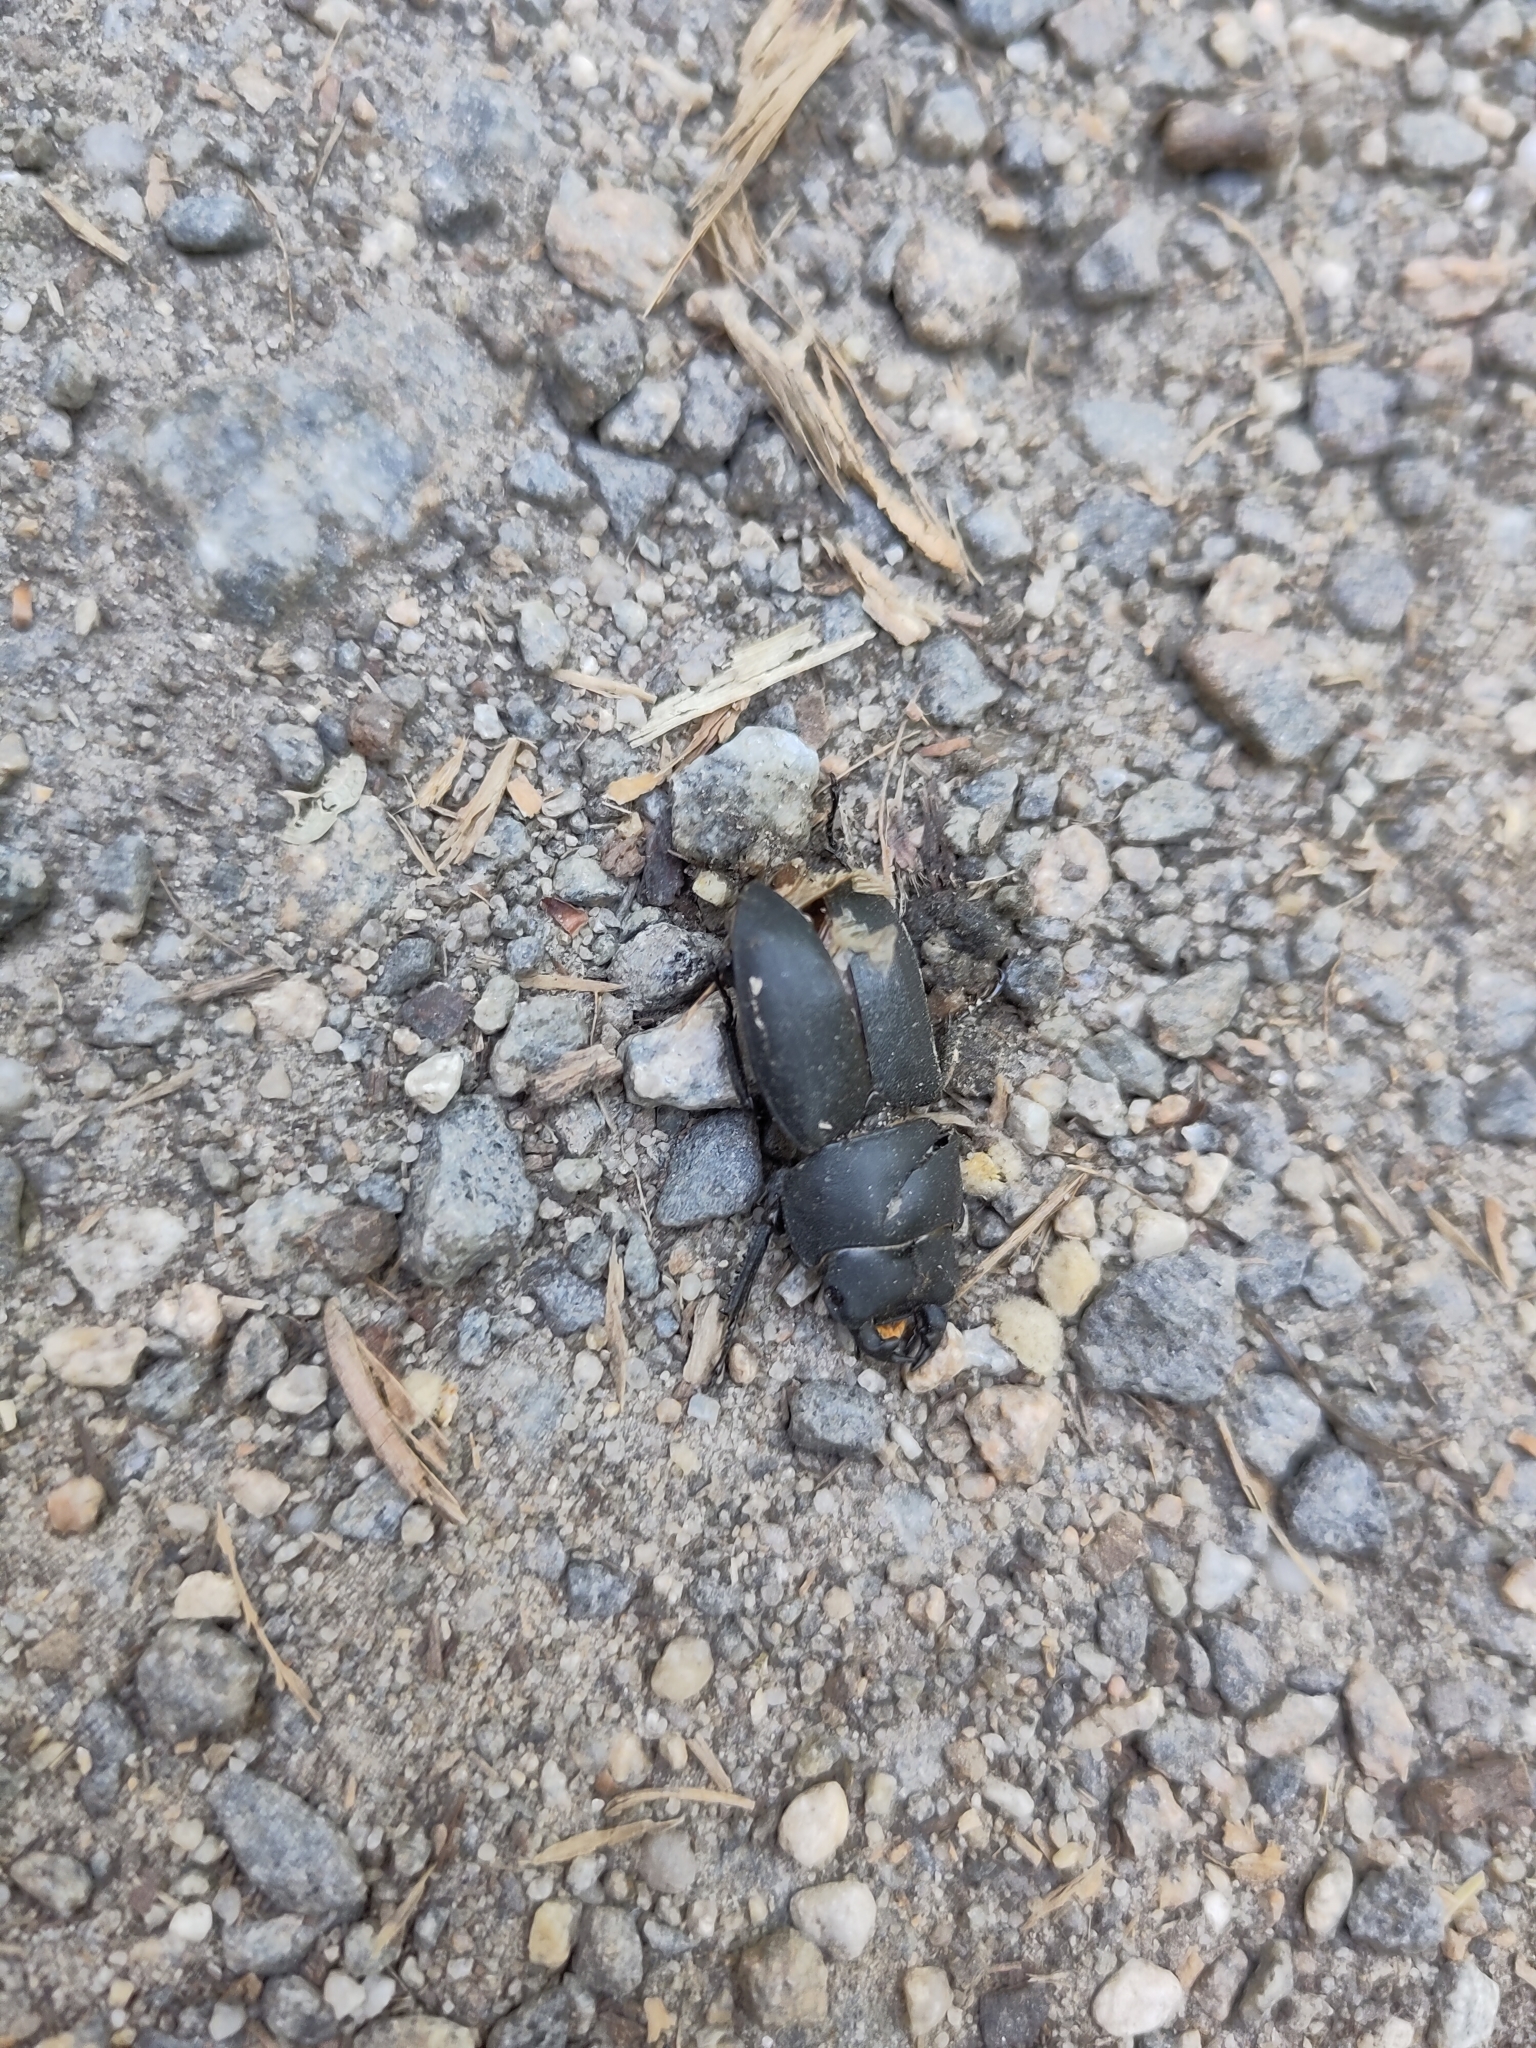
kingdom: Animalia
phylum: Arthropoda
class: Insecta
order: Coleoptera
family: Lucanidae
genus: Dorcus
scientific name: Dorcus parallelipipedus
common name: Lesser stag beetle
